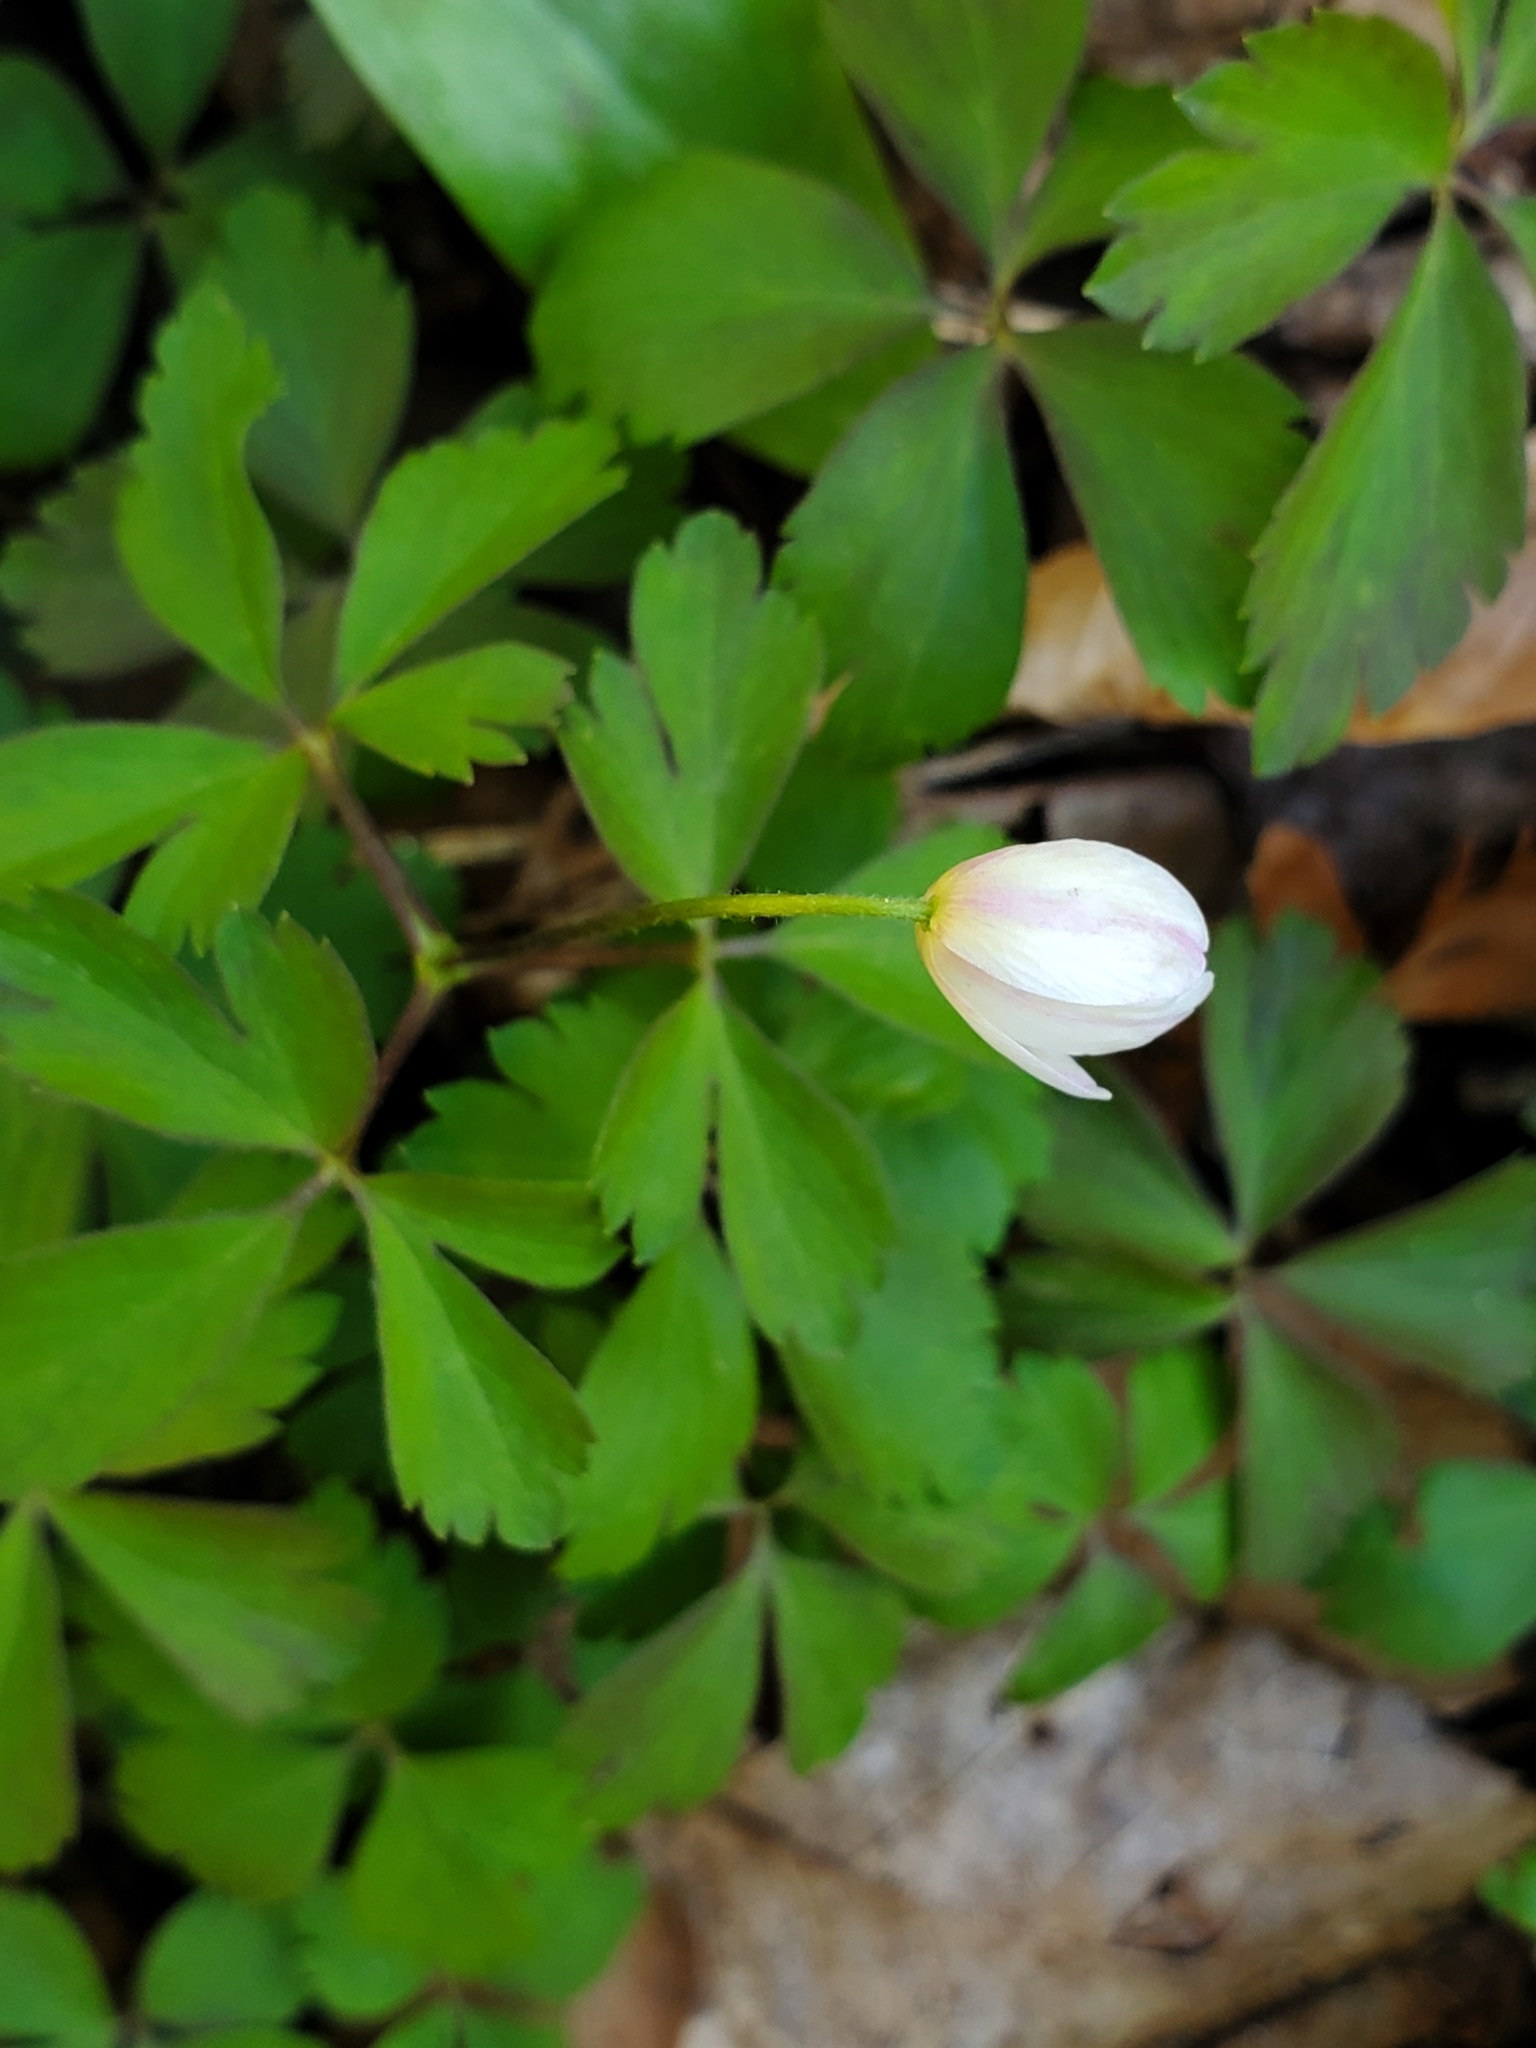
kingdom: Plantae
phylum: Tracheophyta
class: Magnoliopsida
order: Ranunculales
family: Ranunculaceae
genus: Anemone
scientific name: Anemone quinquefolia
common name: Wood anemone
